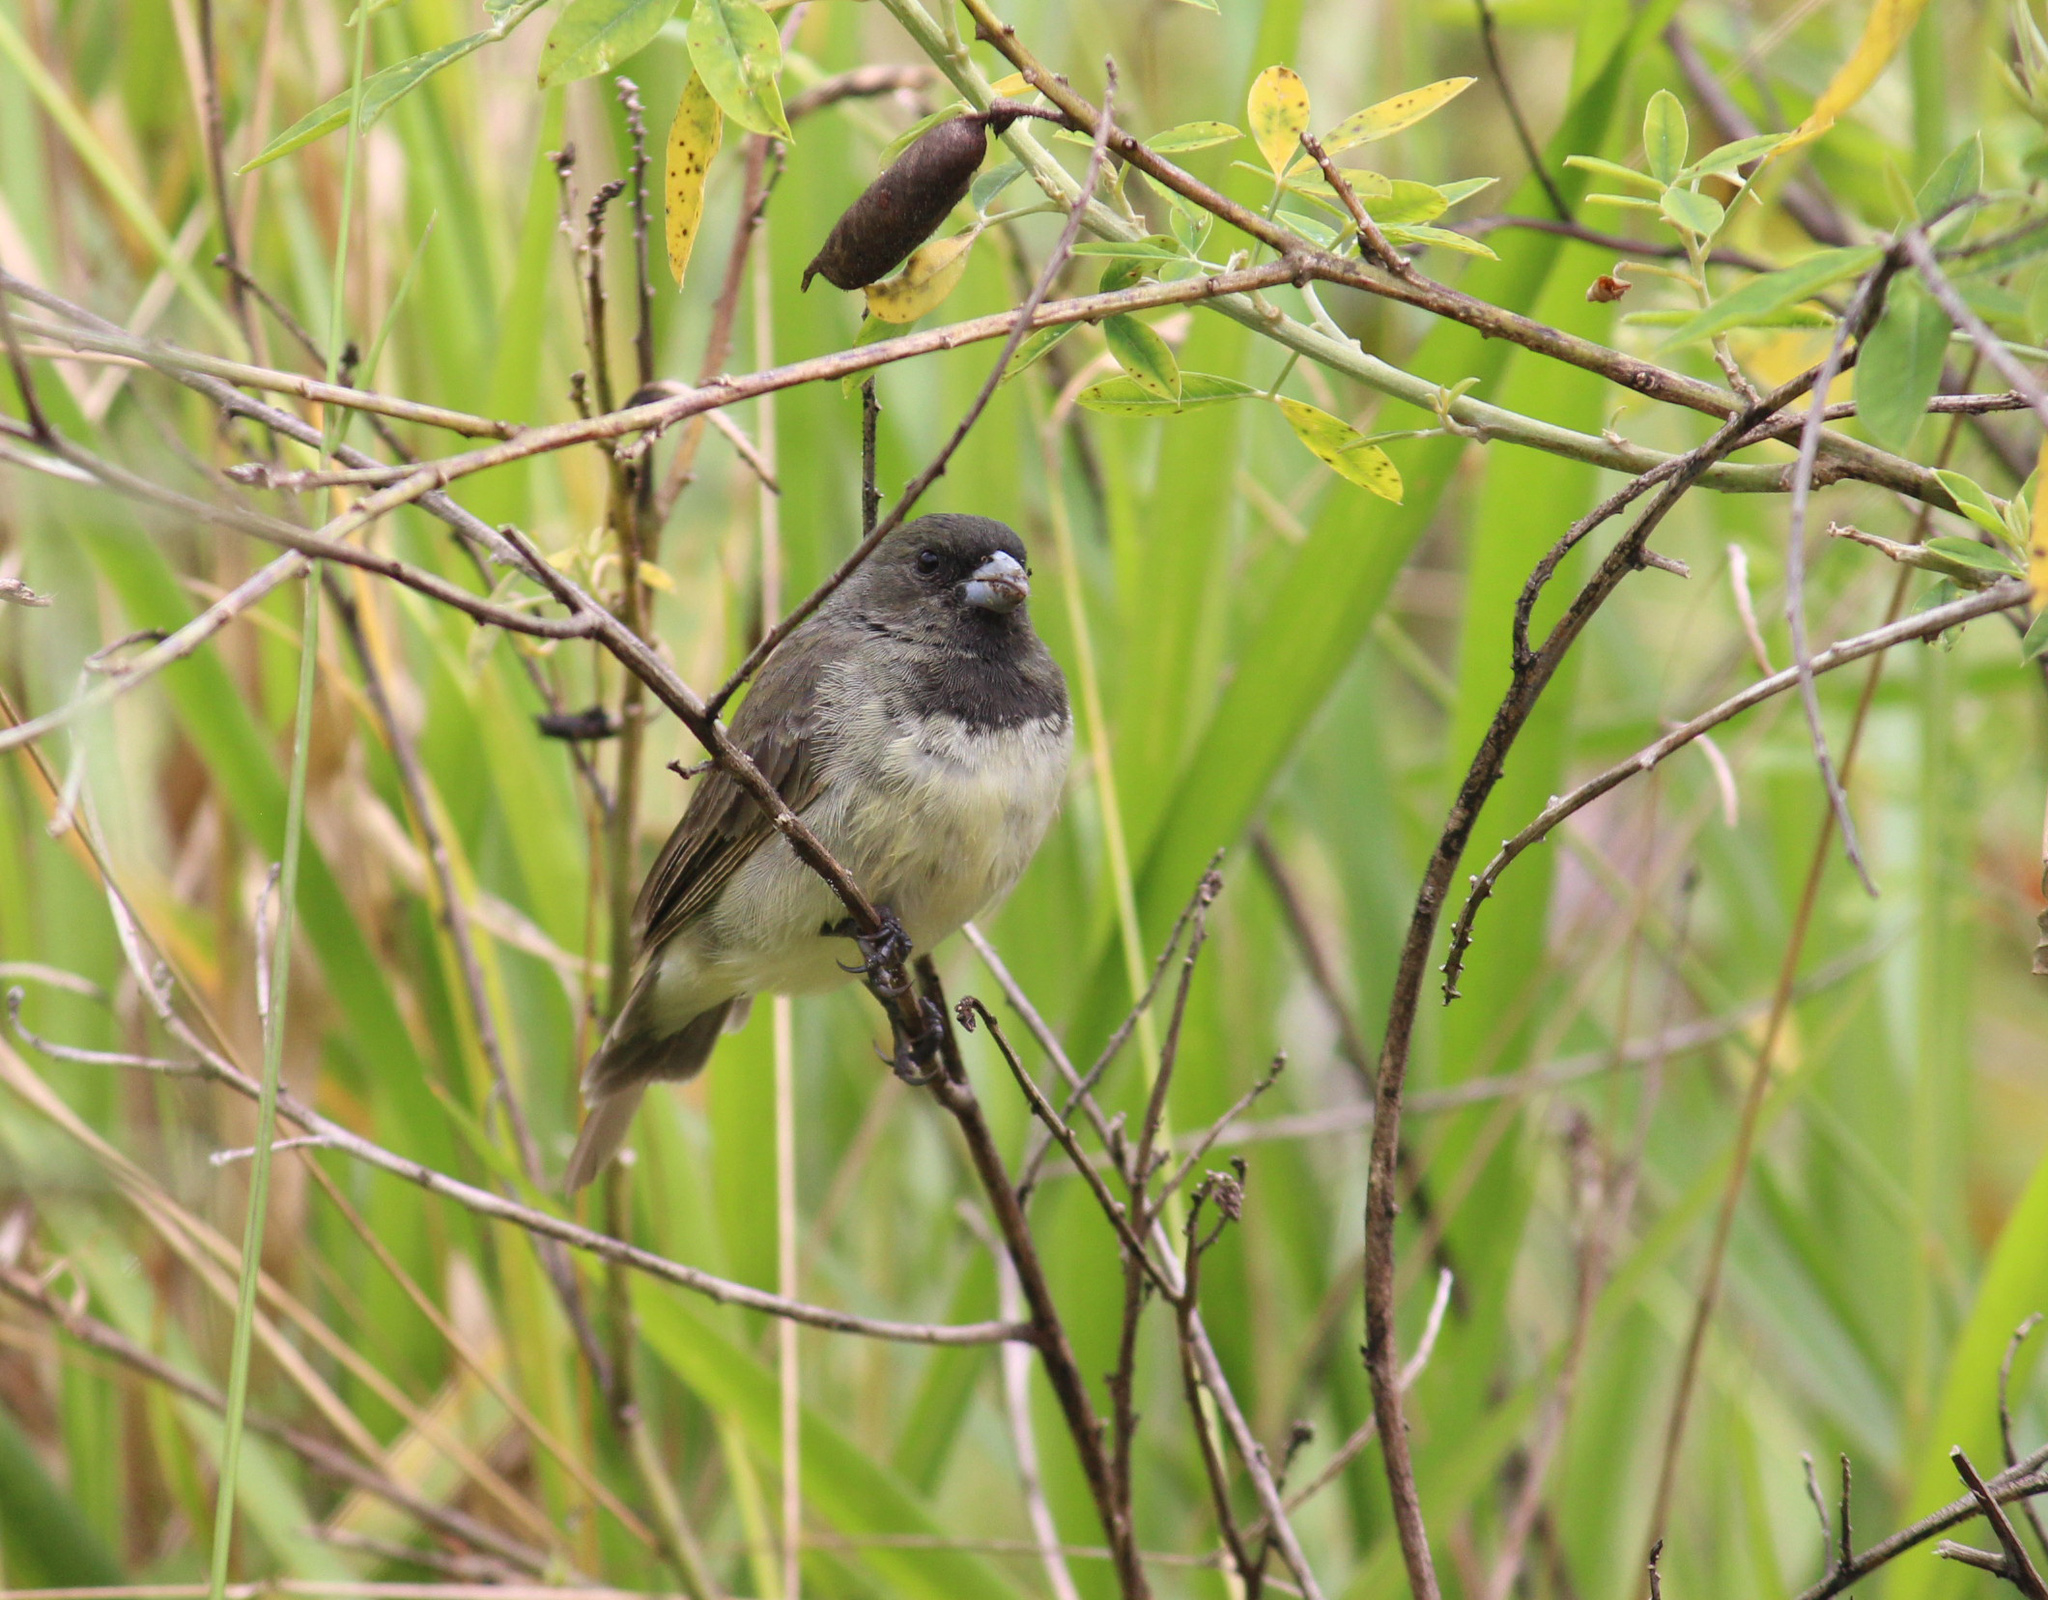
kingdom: Animalia
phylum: Chordata
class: Aves
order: Passeriformes
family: Thraupidae
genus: Sporophila
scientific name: Sporophila nigricollis
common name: Yellow-bellied seedeater
